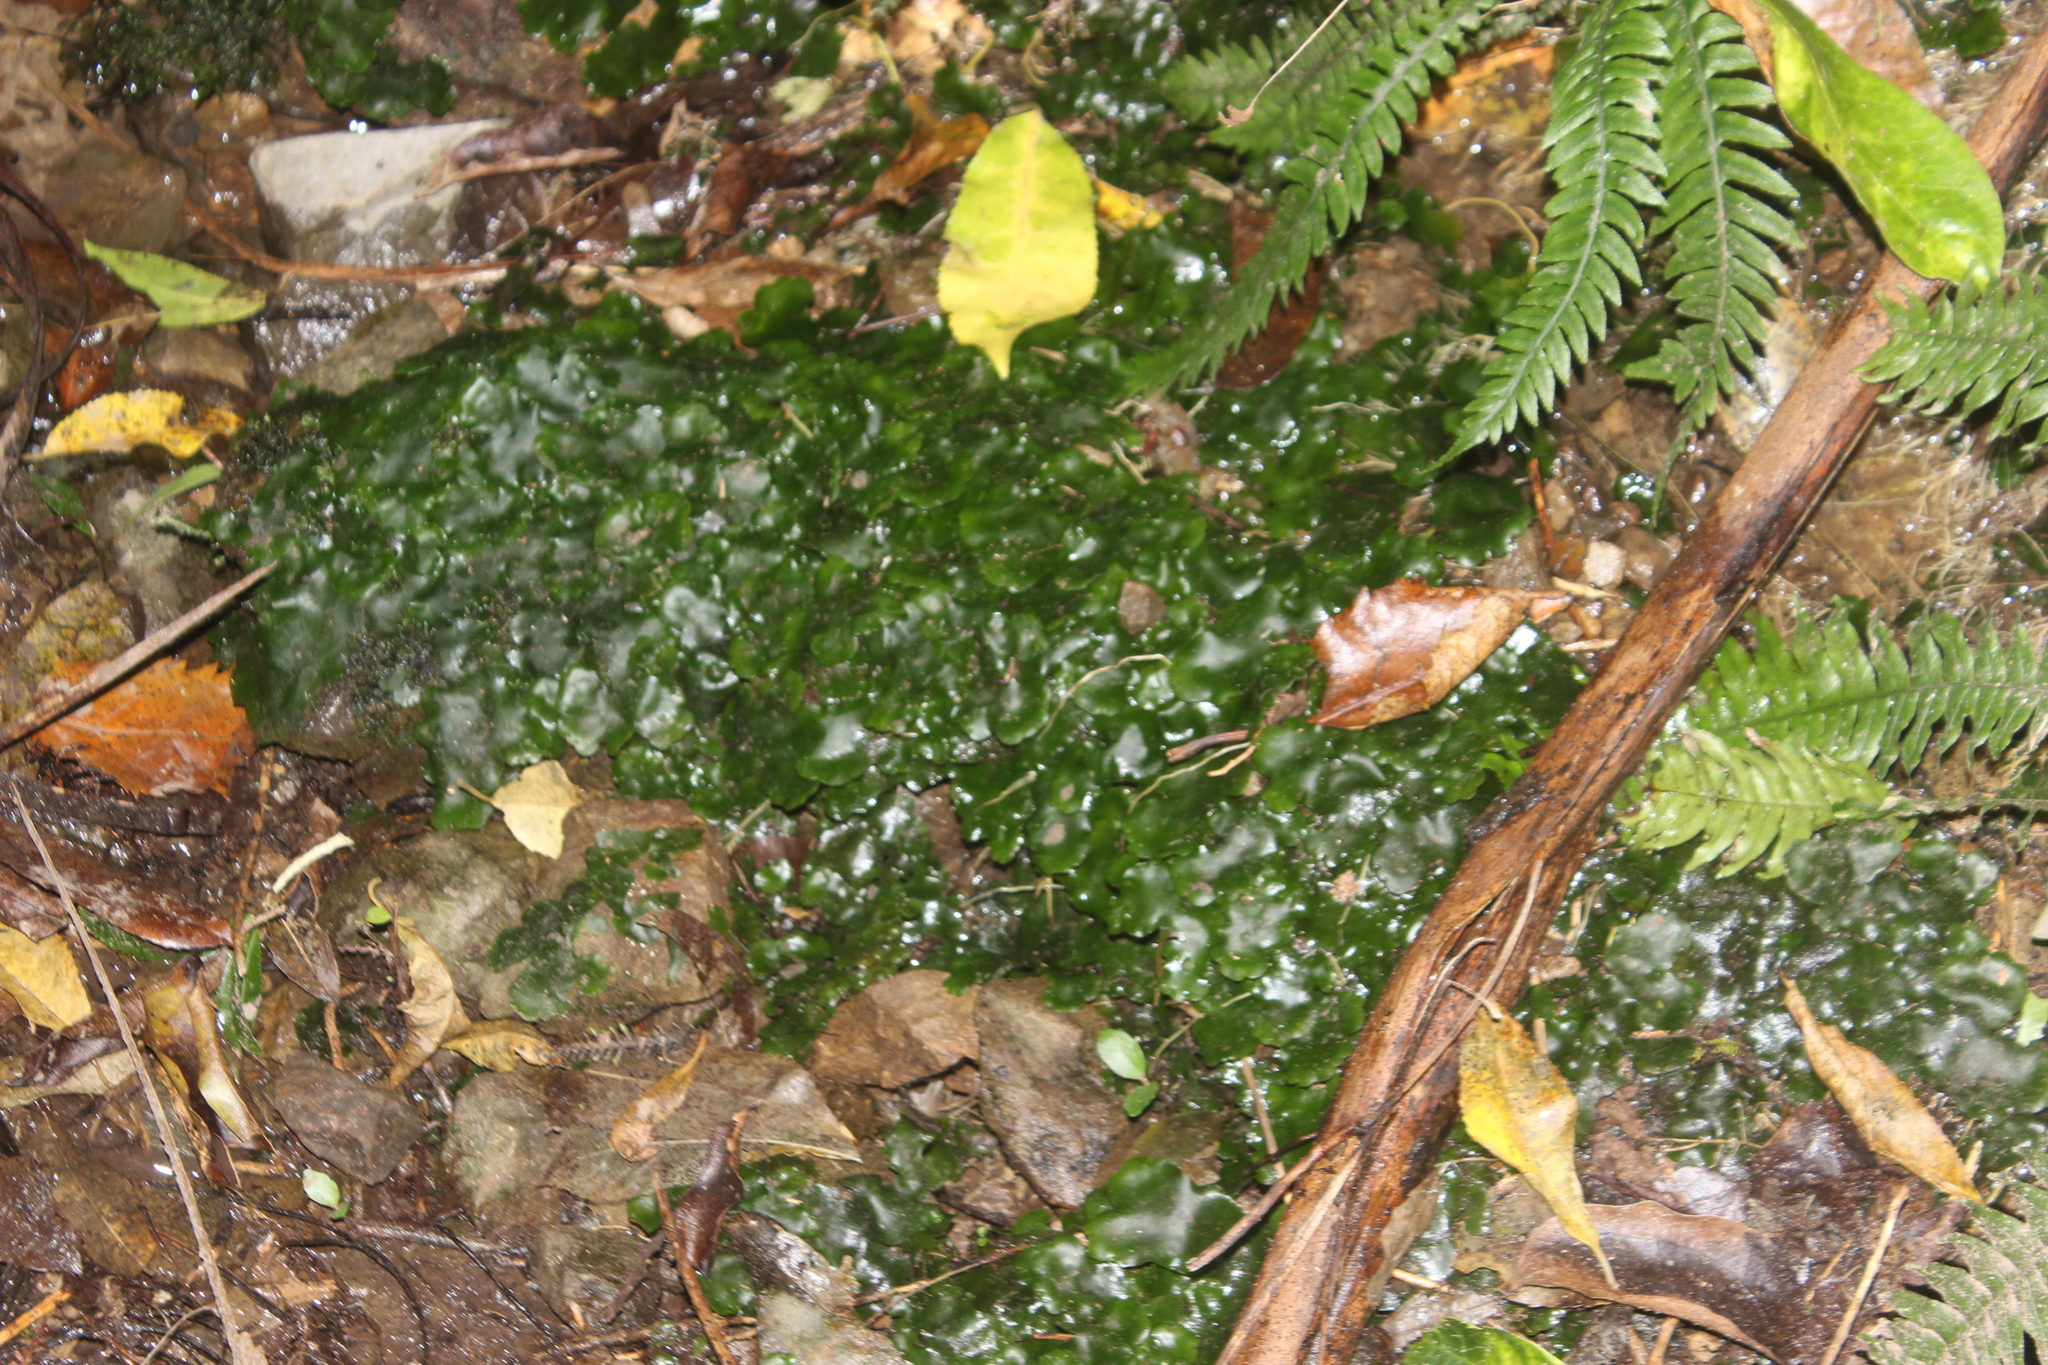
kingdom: Plantae
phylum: Marchantiophyta
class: Marchantiopsida
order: Marchantiales
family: Monocleaceae
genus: Monoclea
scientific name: Monoclea forsteri
